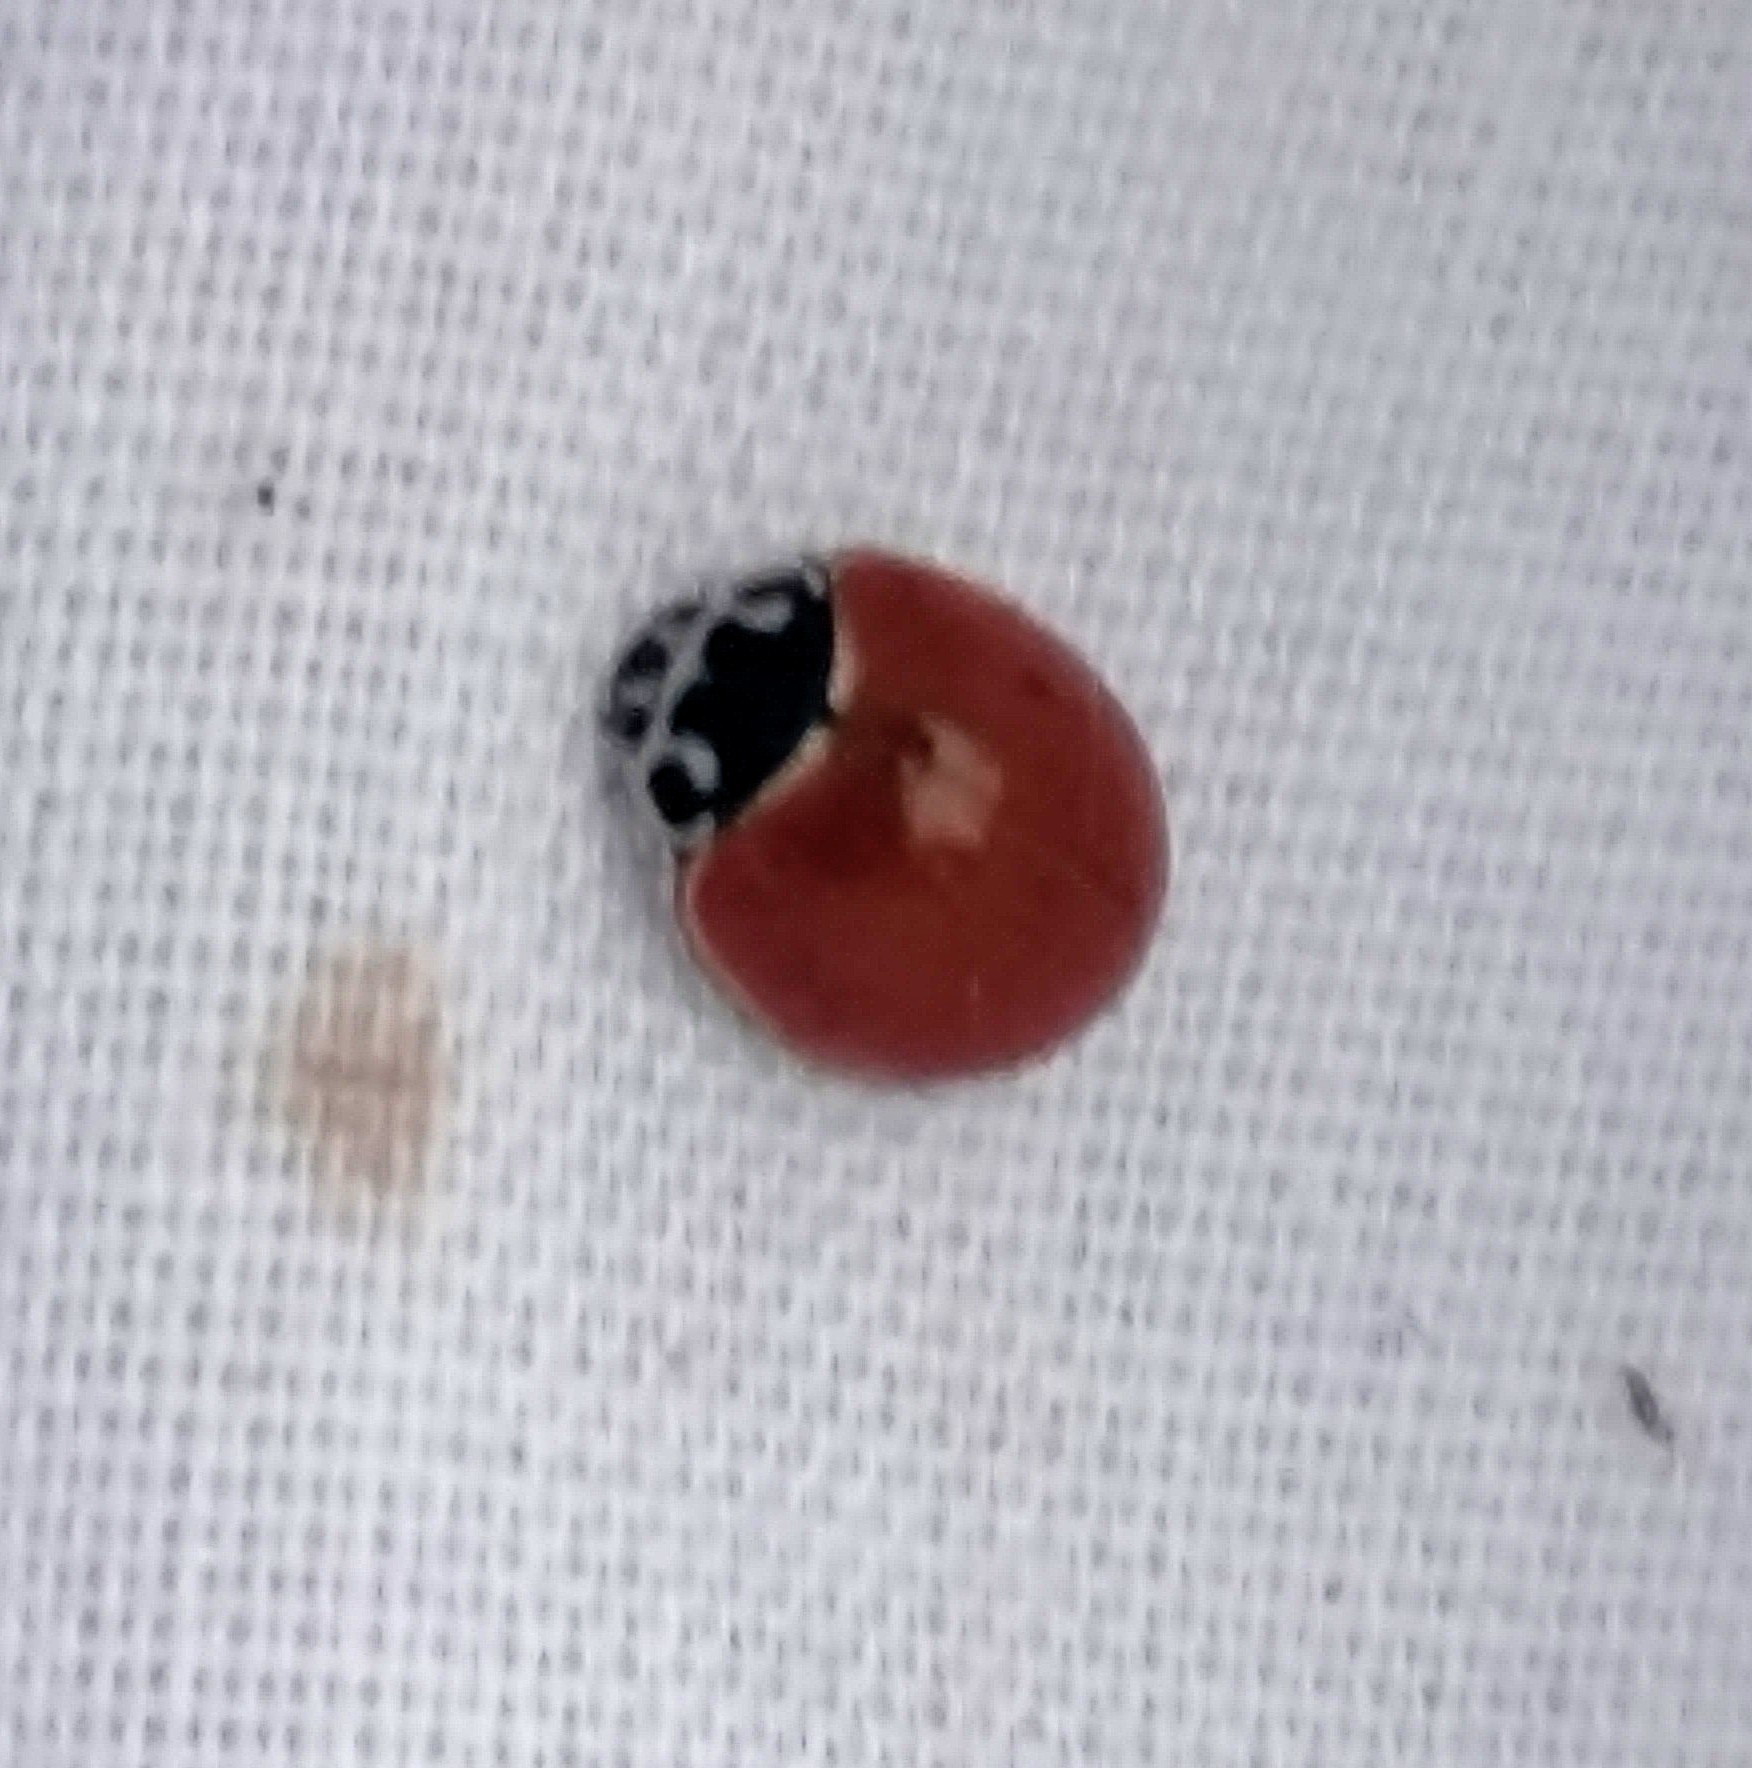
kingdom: Animalia
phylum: Arthropoda
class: Insecta
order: Coleoptera
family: Coccinellidae
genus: Cycloneda
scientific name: Cycloneda munda
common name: Polished lady beetle
